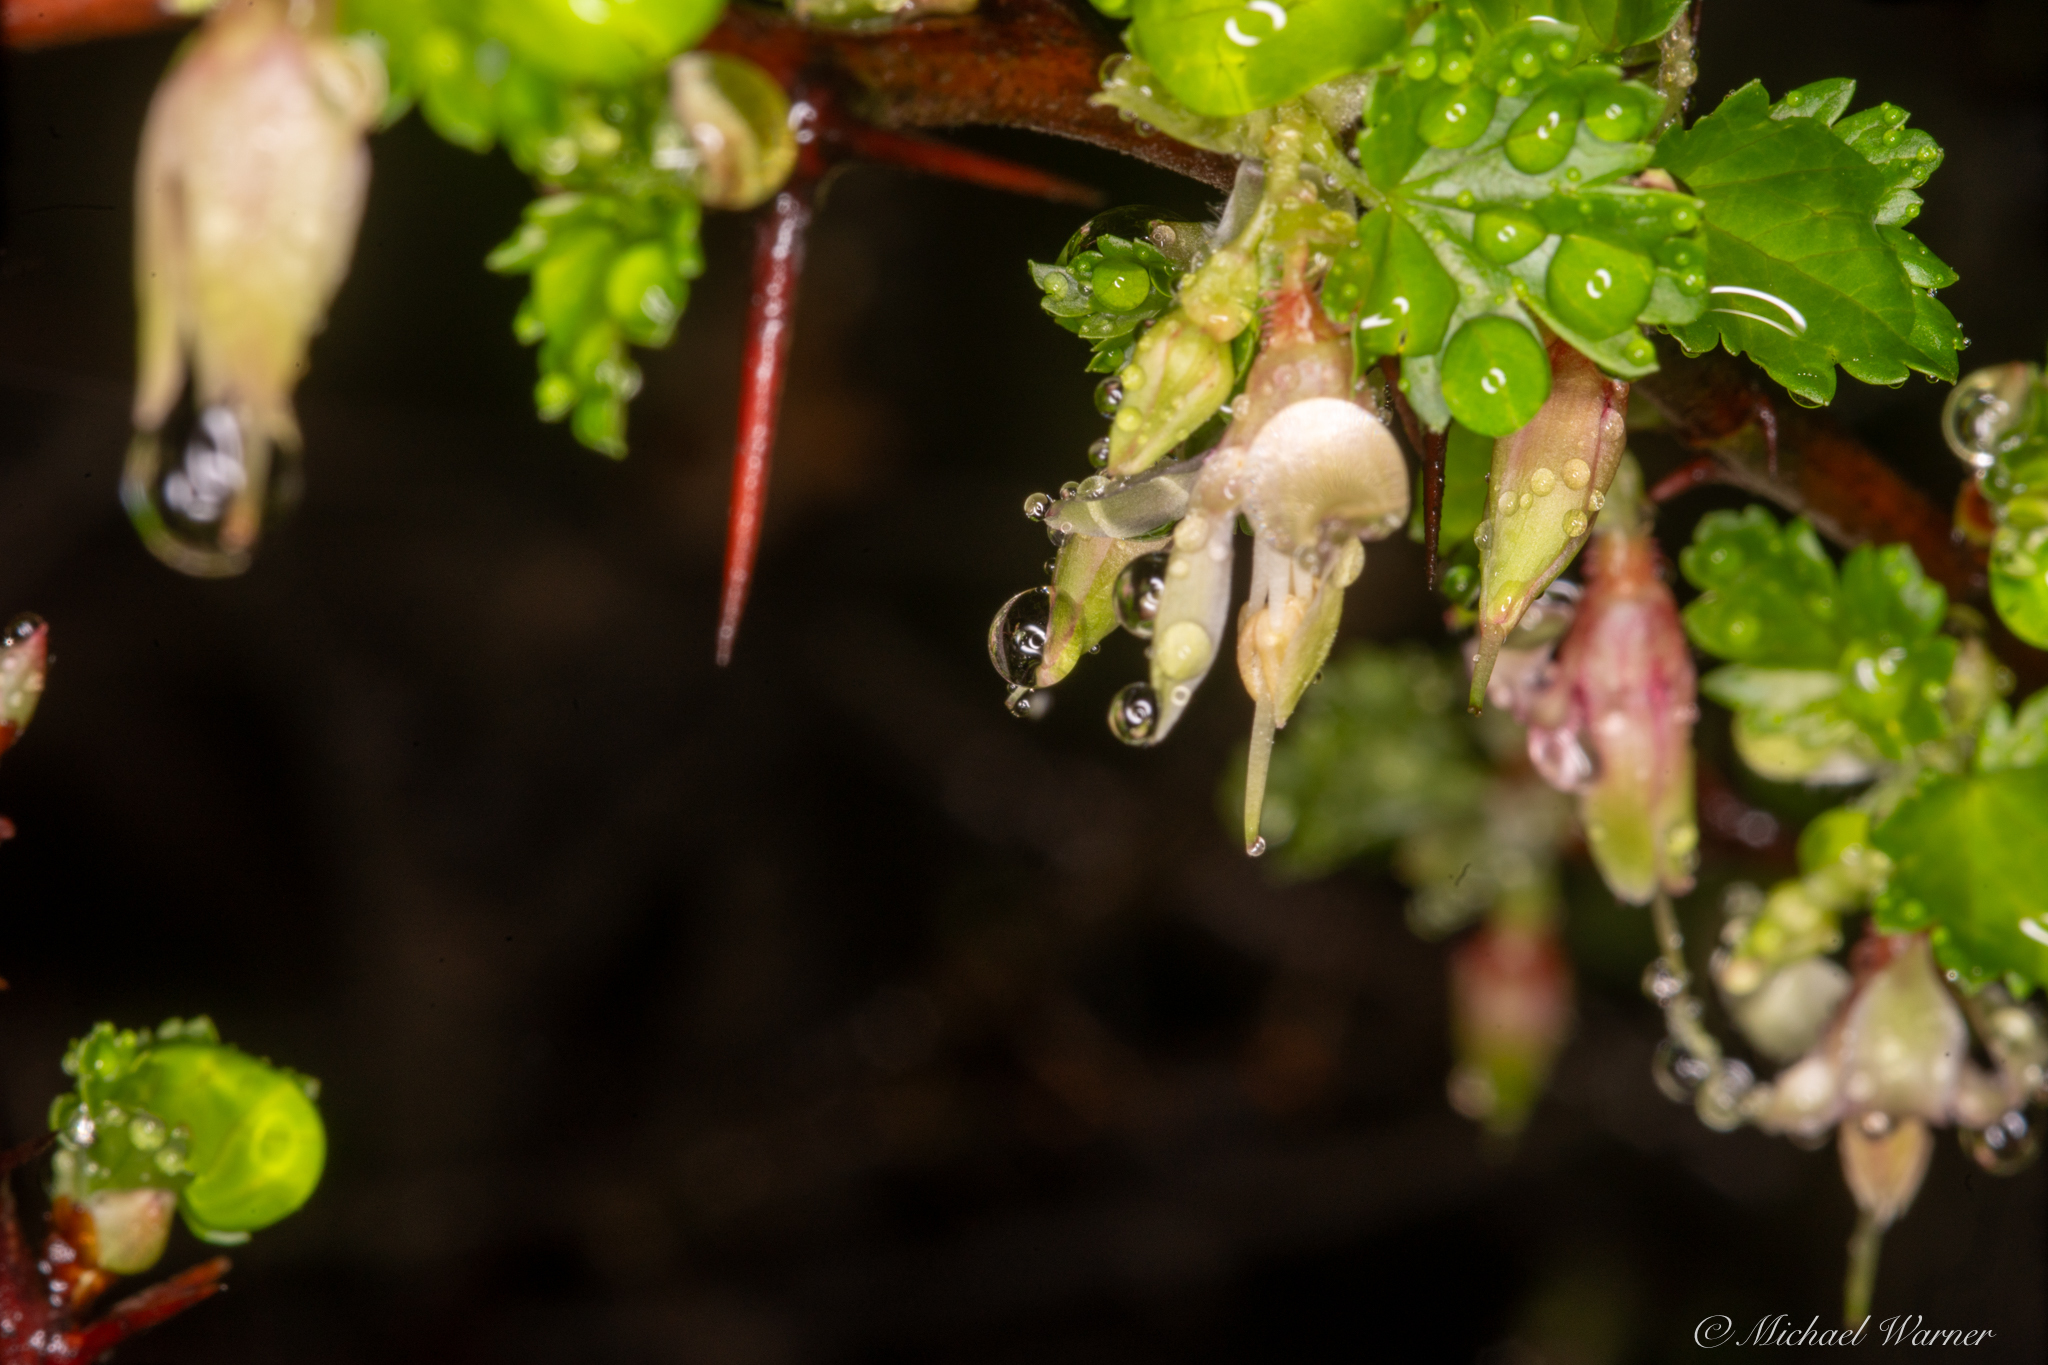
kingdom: Plantae
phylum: Tracheophyta
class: Magnoliopsida
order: Saxifragales
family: Grossulariaceae
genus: Ribes
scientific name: Ribes californicum
